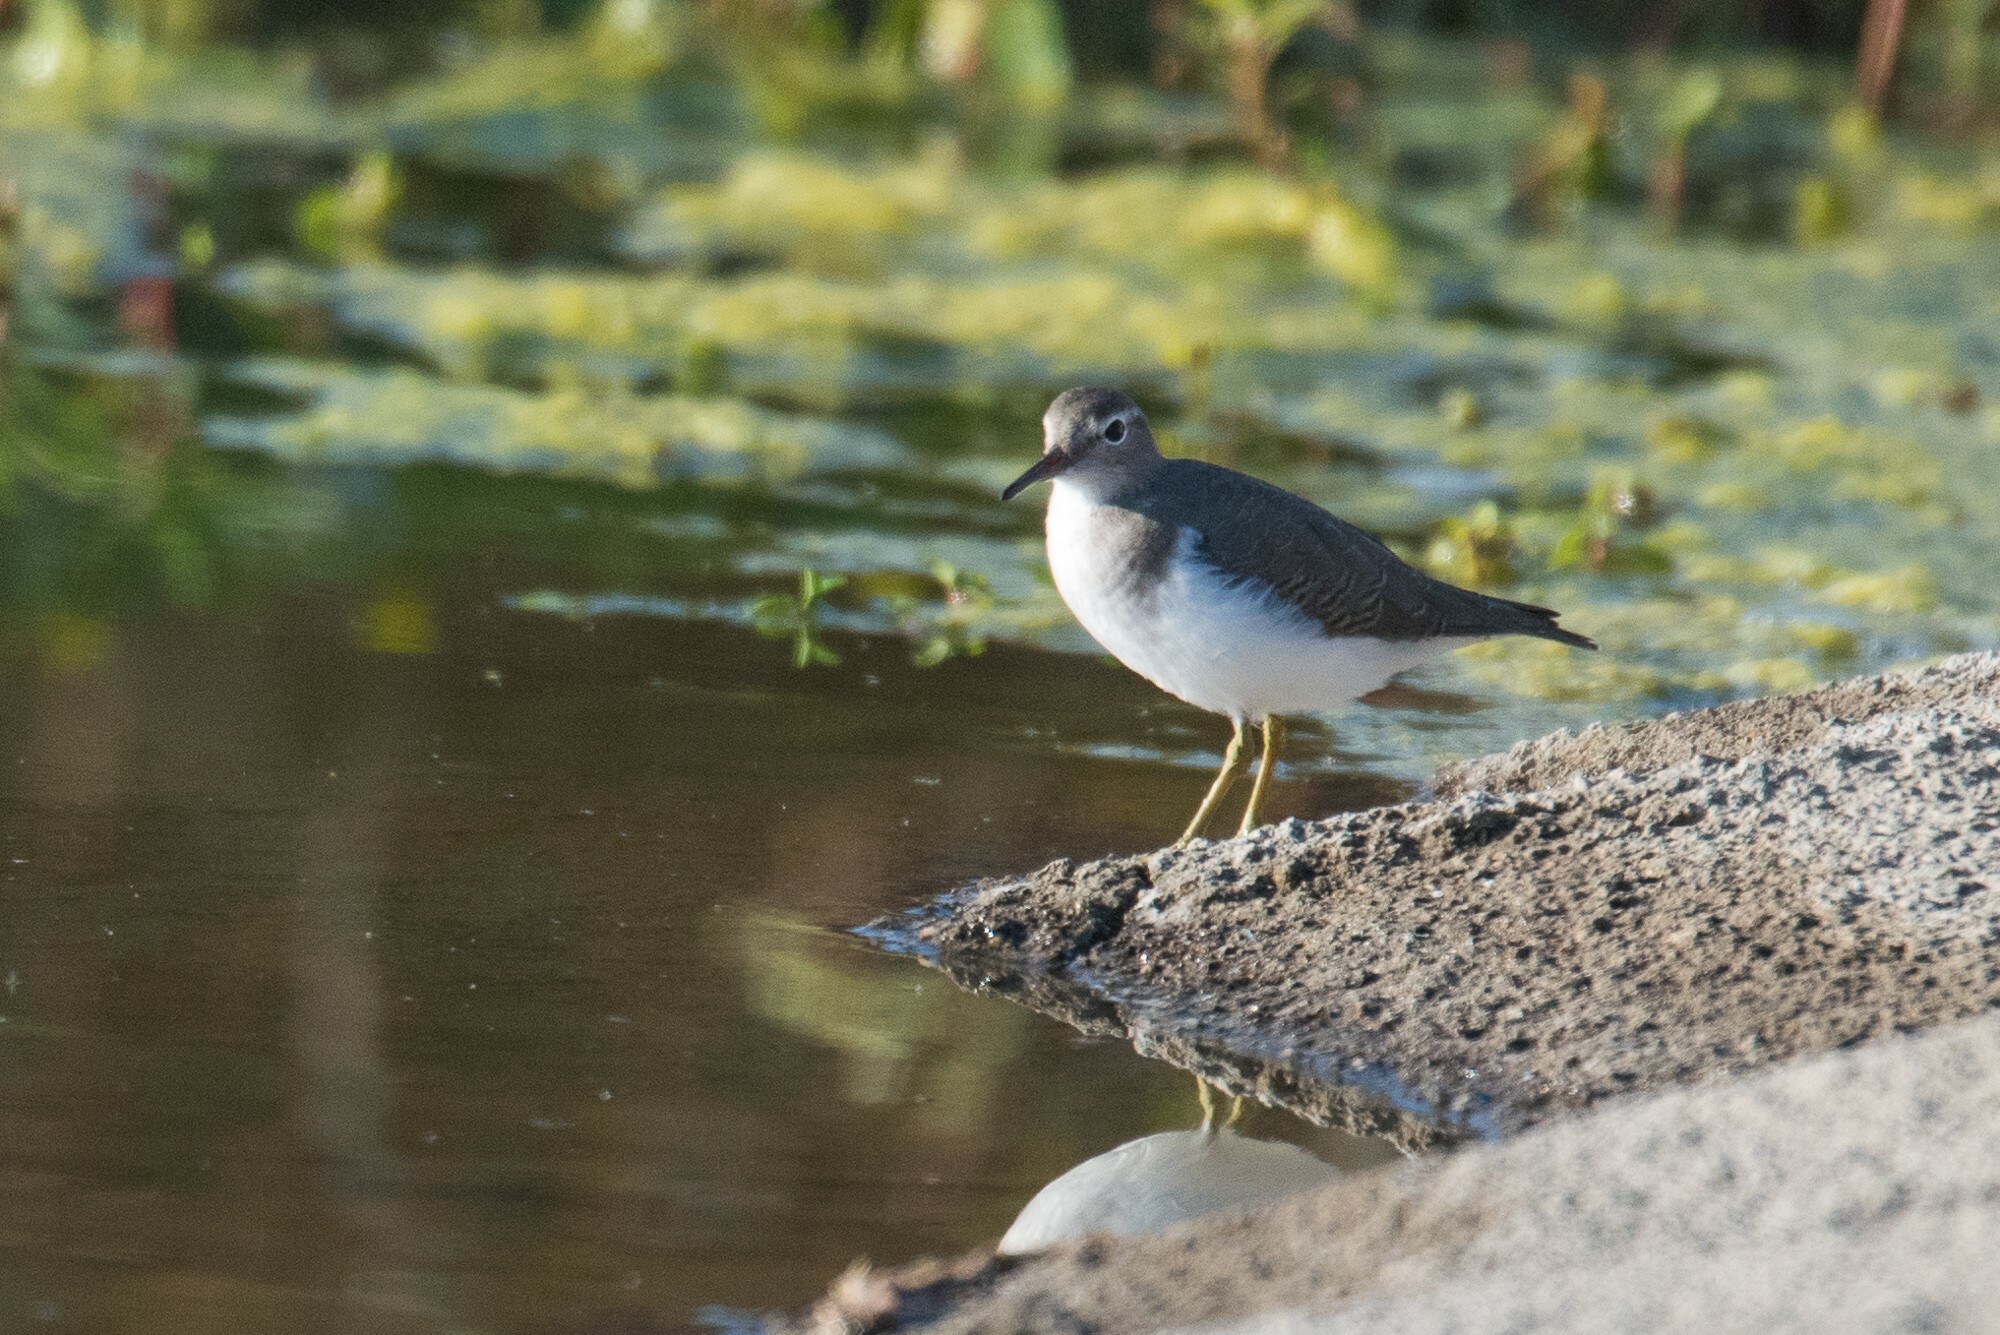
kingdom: Animalia
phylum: Chordata
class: Aves
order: Charadriiformes
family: Scolopacidae
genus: Actitis
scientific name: Actitis macularius
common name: Spotted sandpiper
